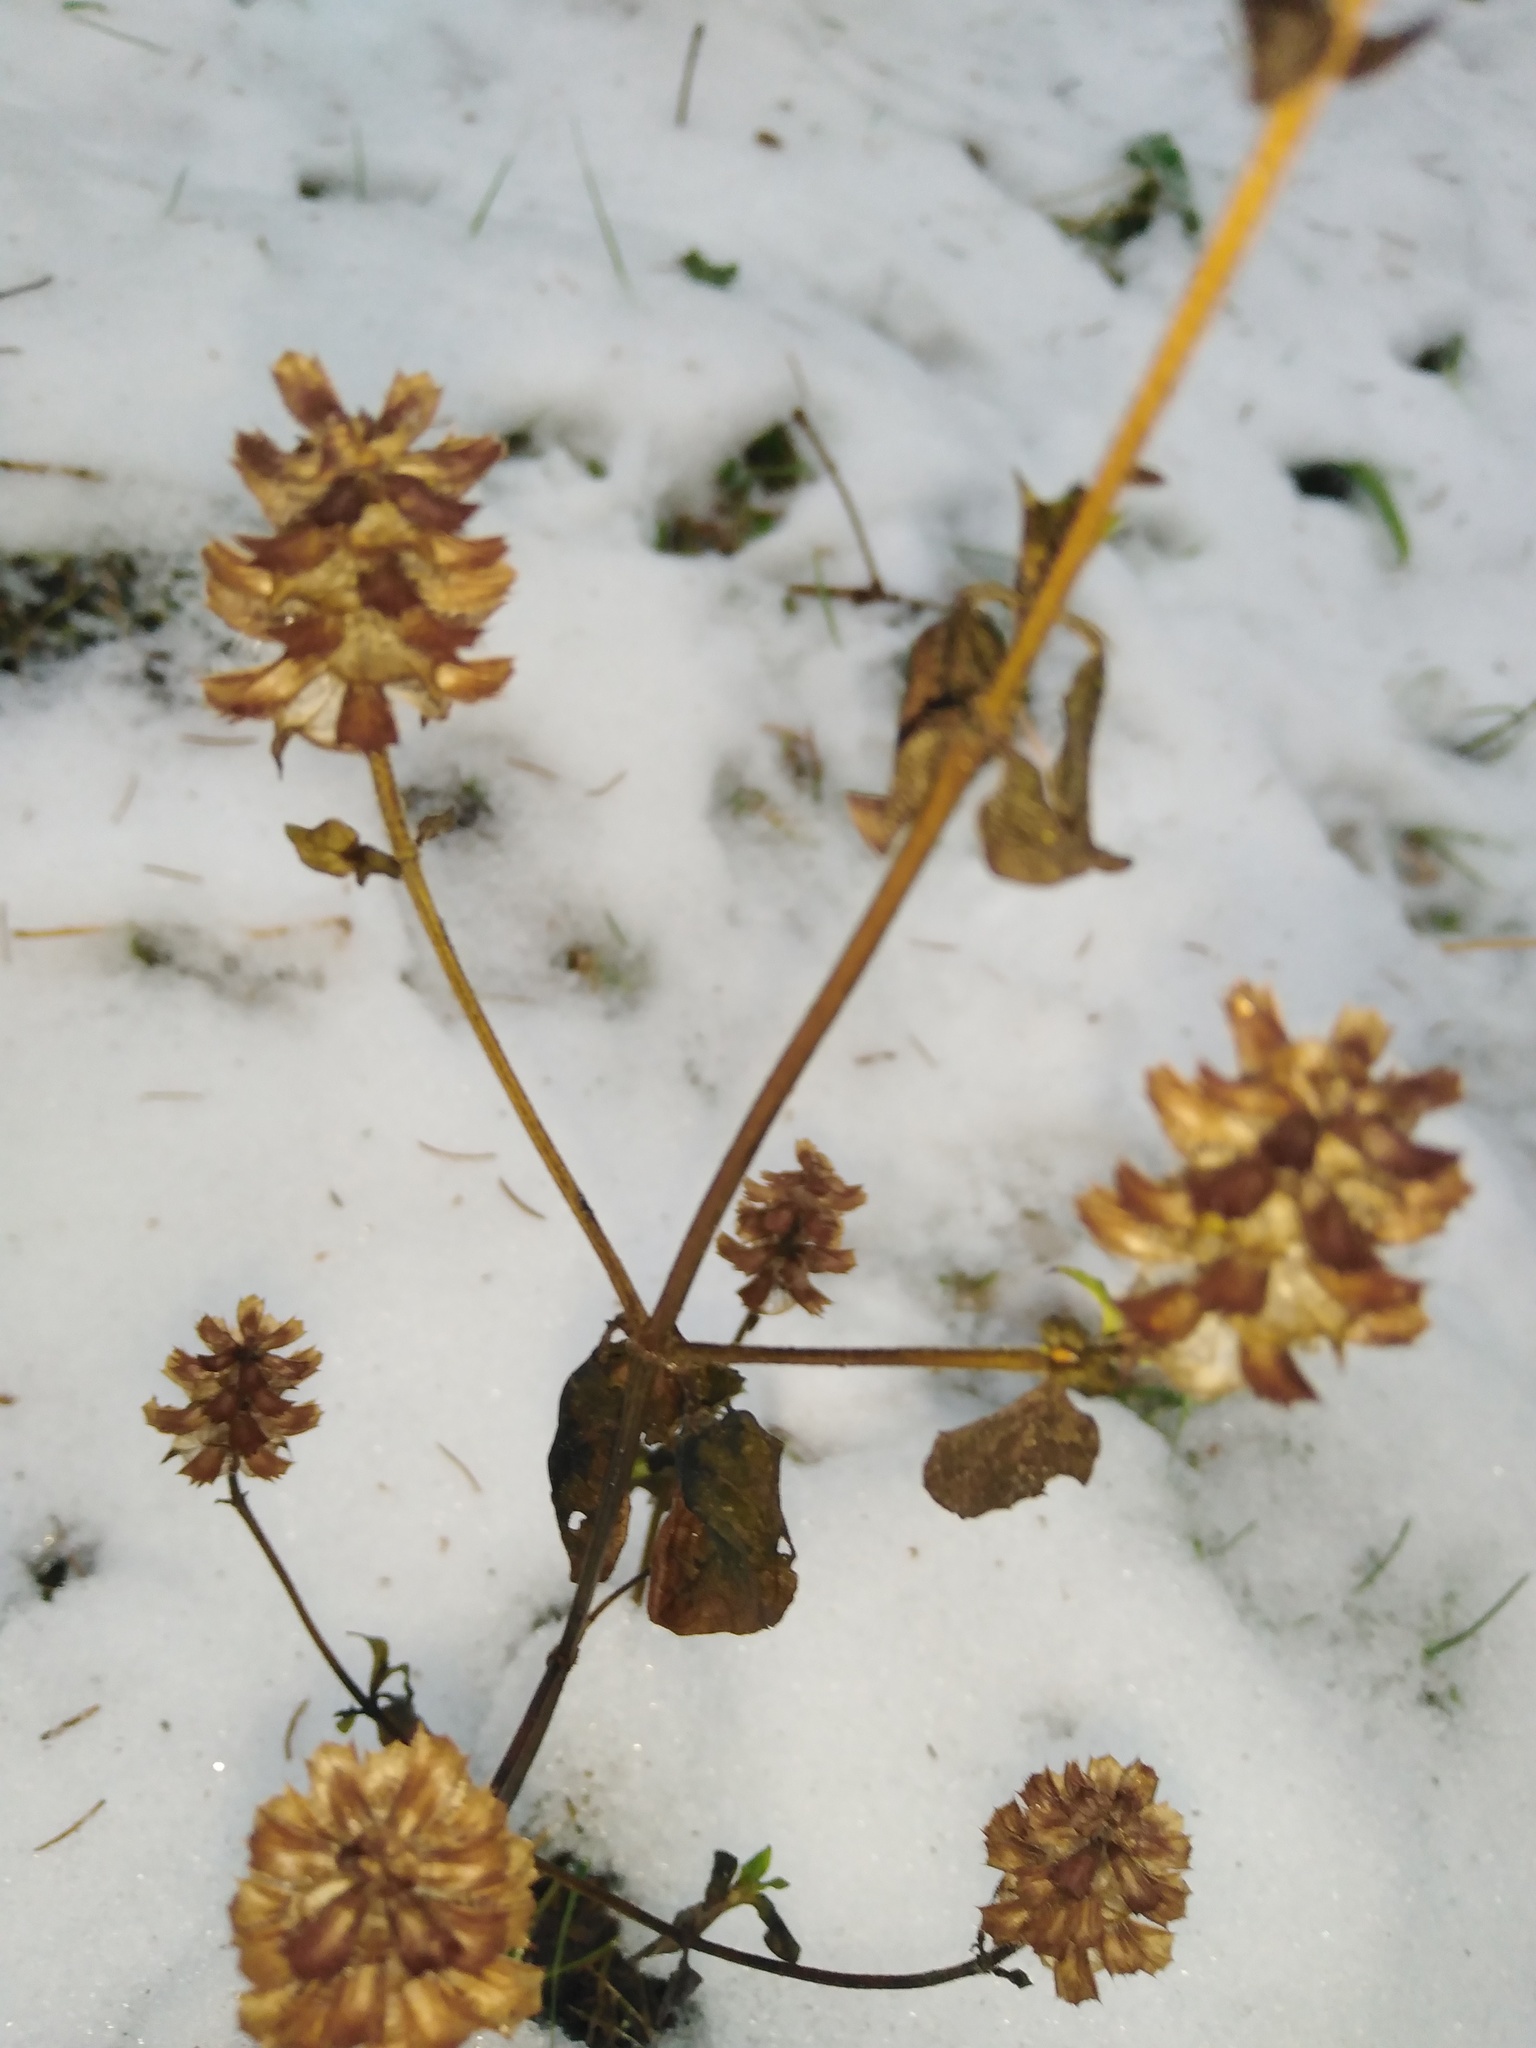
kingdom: Plantae
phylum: Tracheophyta
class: Magnoliopsida
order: Lamiales
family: Lamiaceae
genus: Prunella
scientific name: Prunella vulgaris
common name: Heal-all
